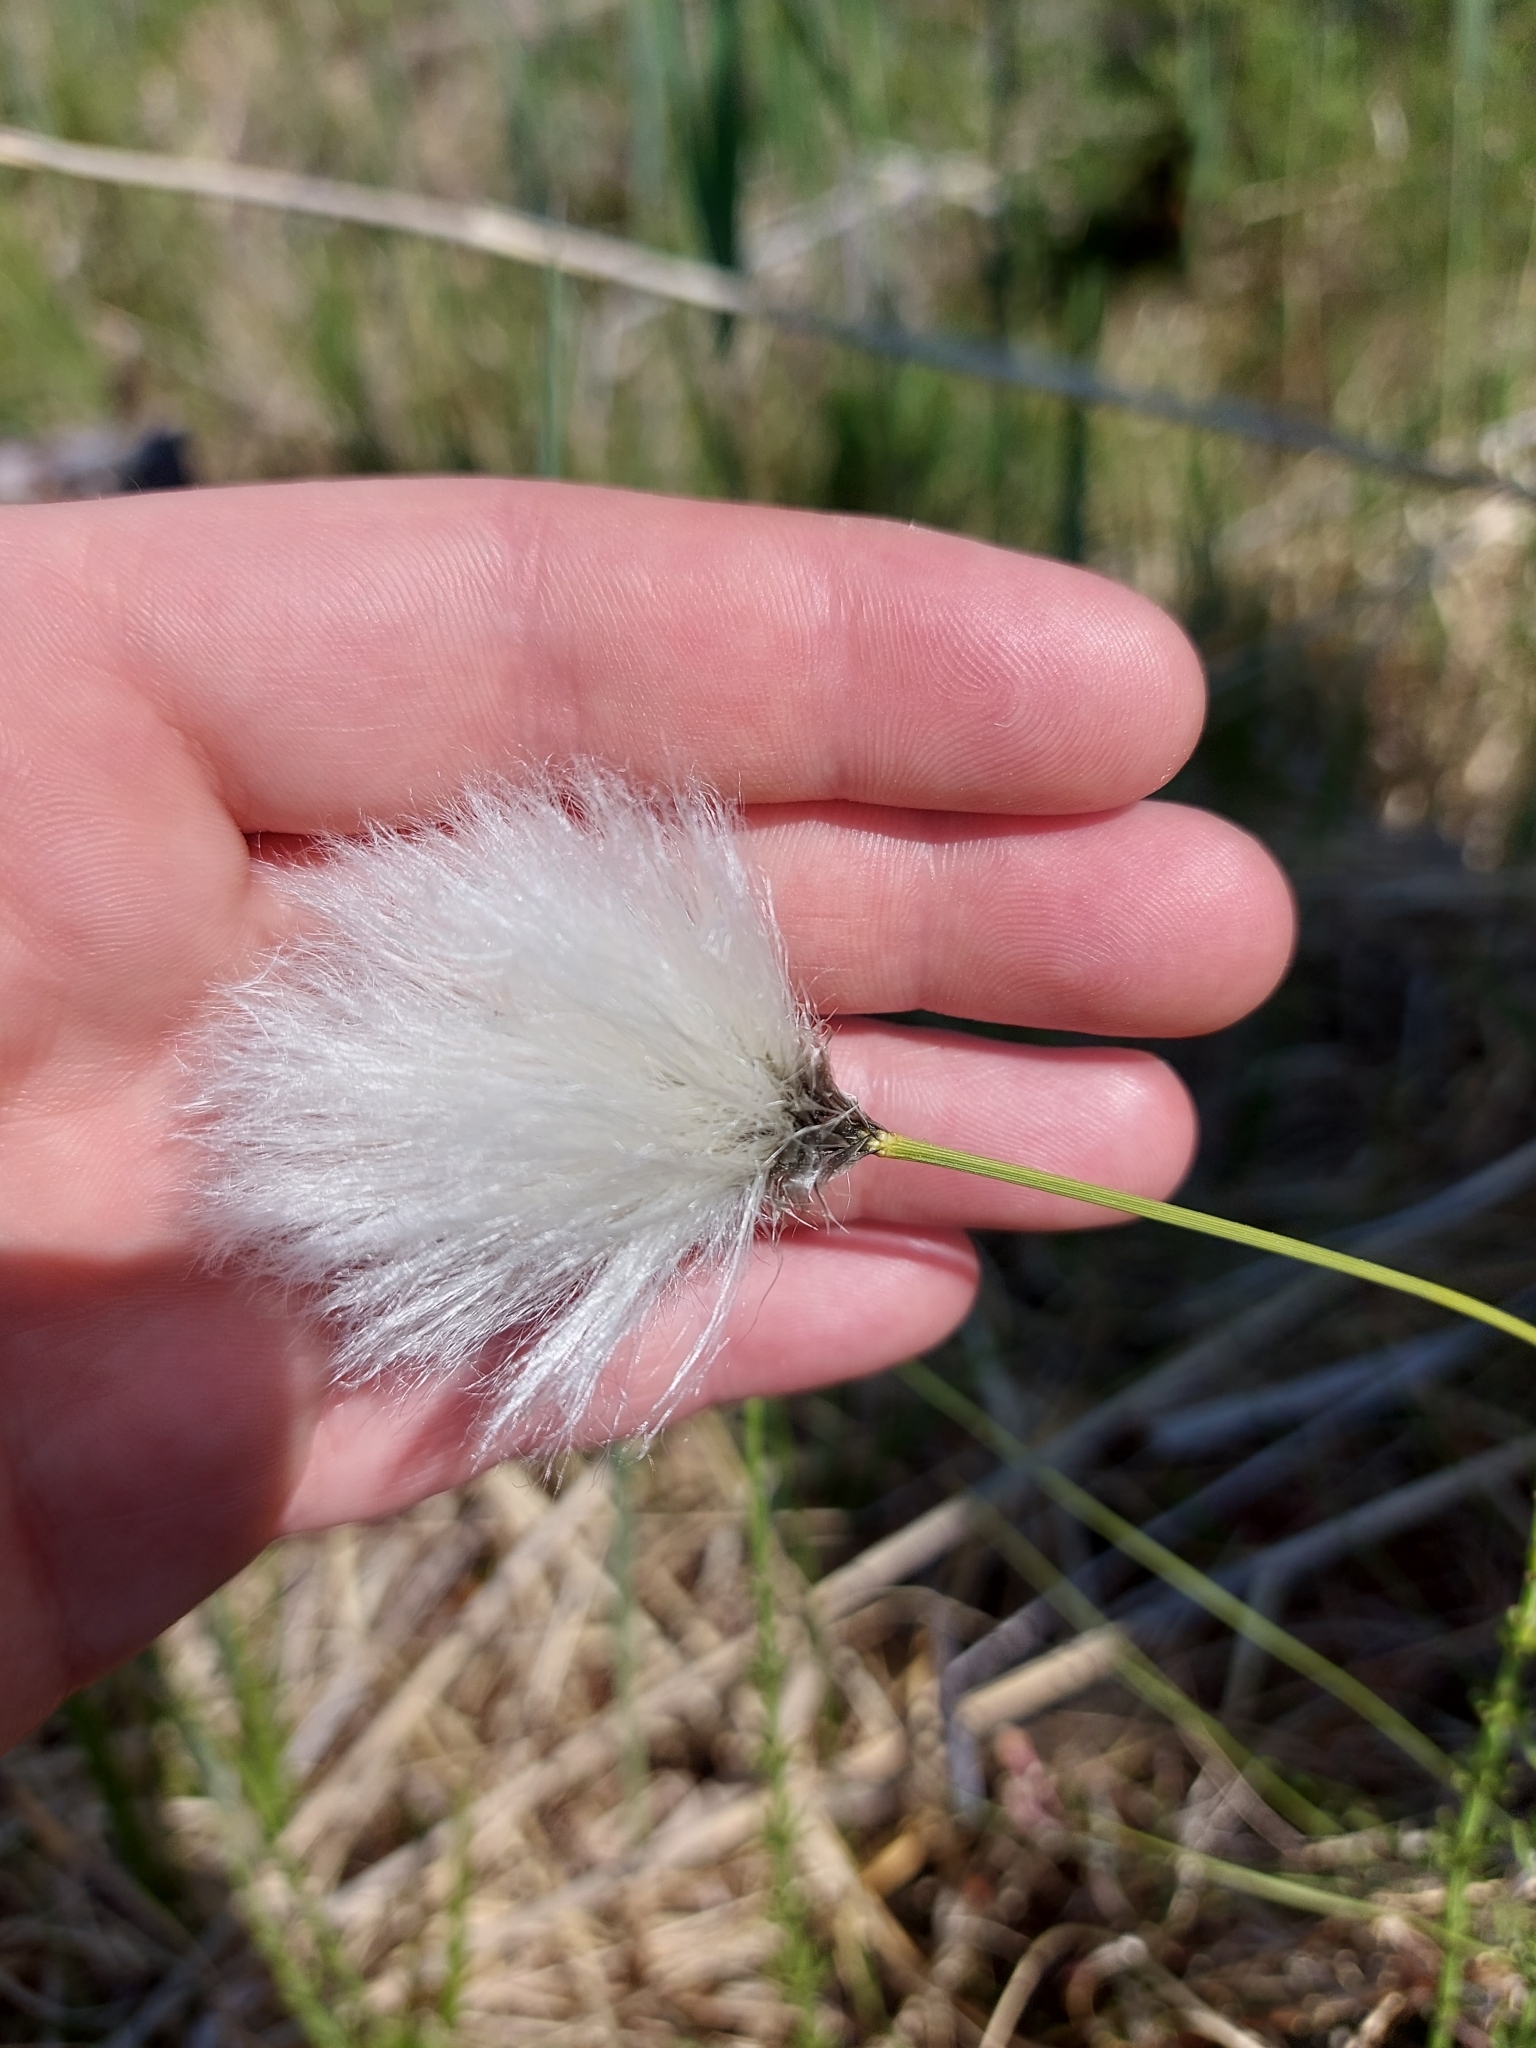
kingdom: Plantae
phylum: Tracheophyta
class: Liliopsida
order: Poales
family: Cyperaceae
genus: Eriophorum
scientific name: Eriophorum vaginatum
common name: Hare's-tail cottongrass
